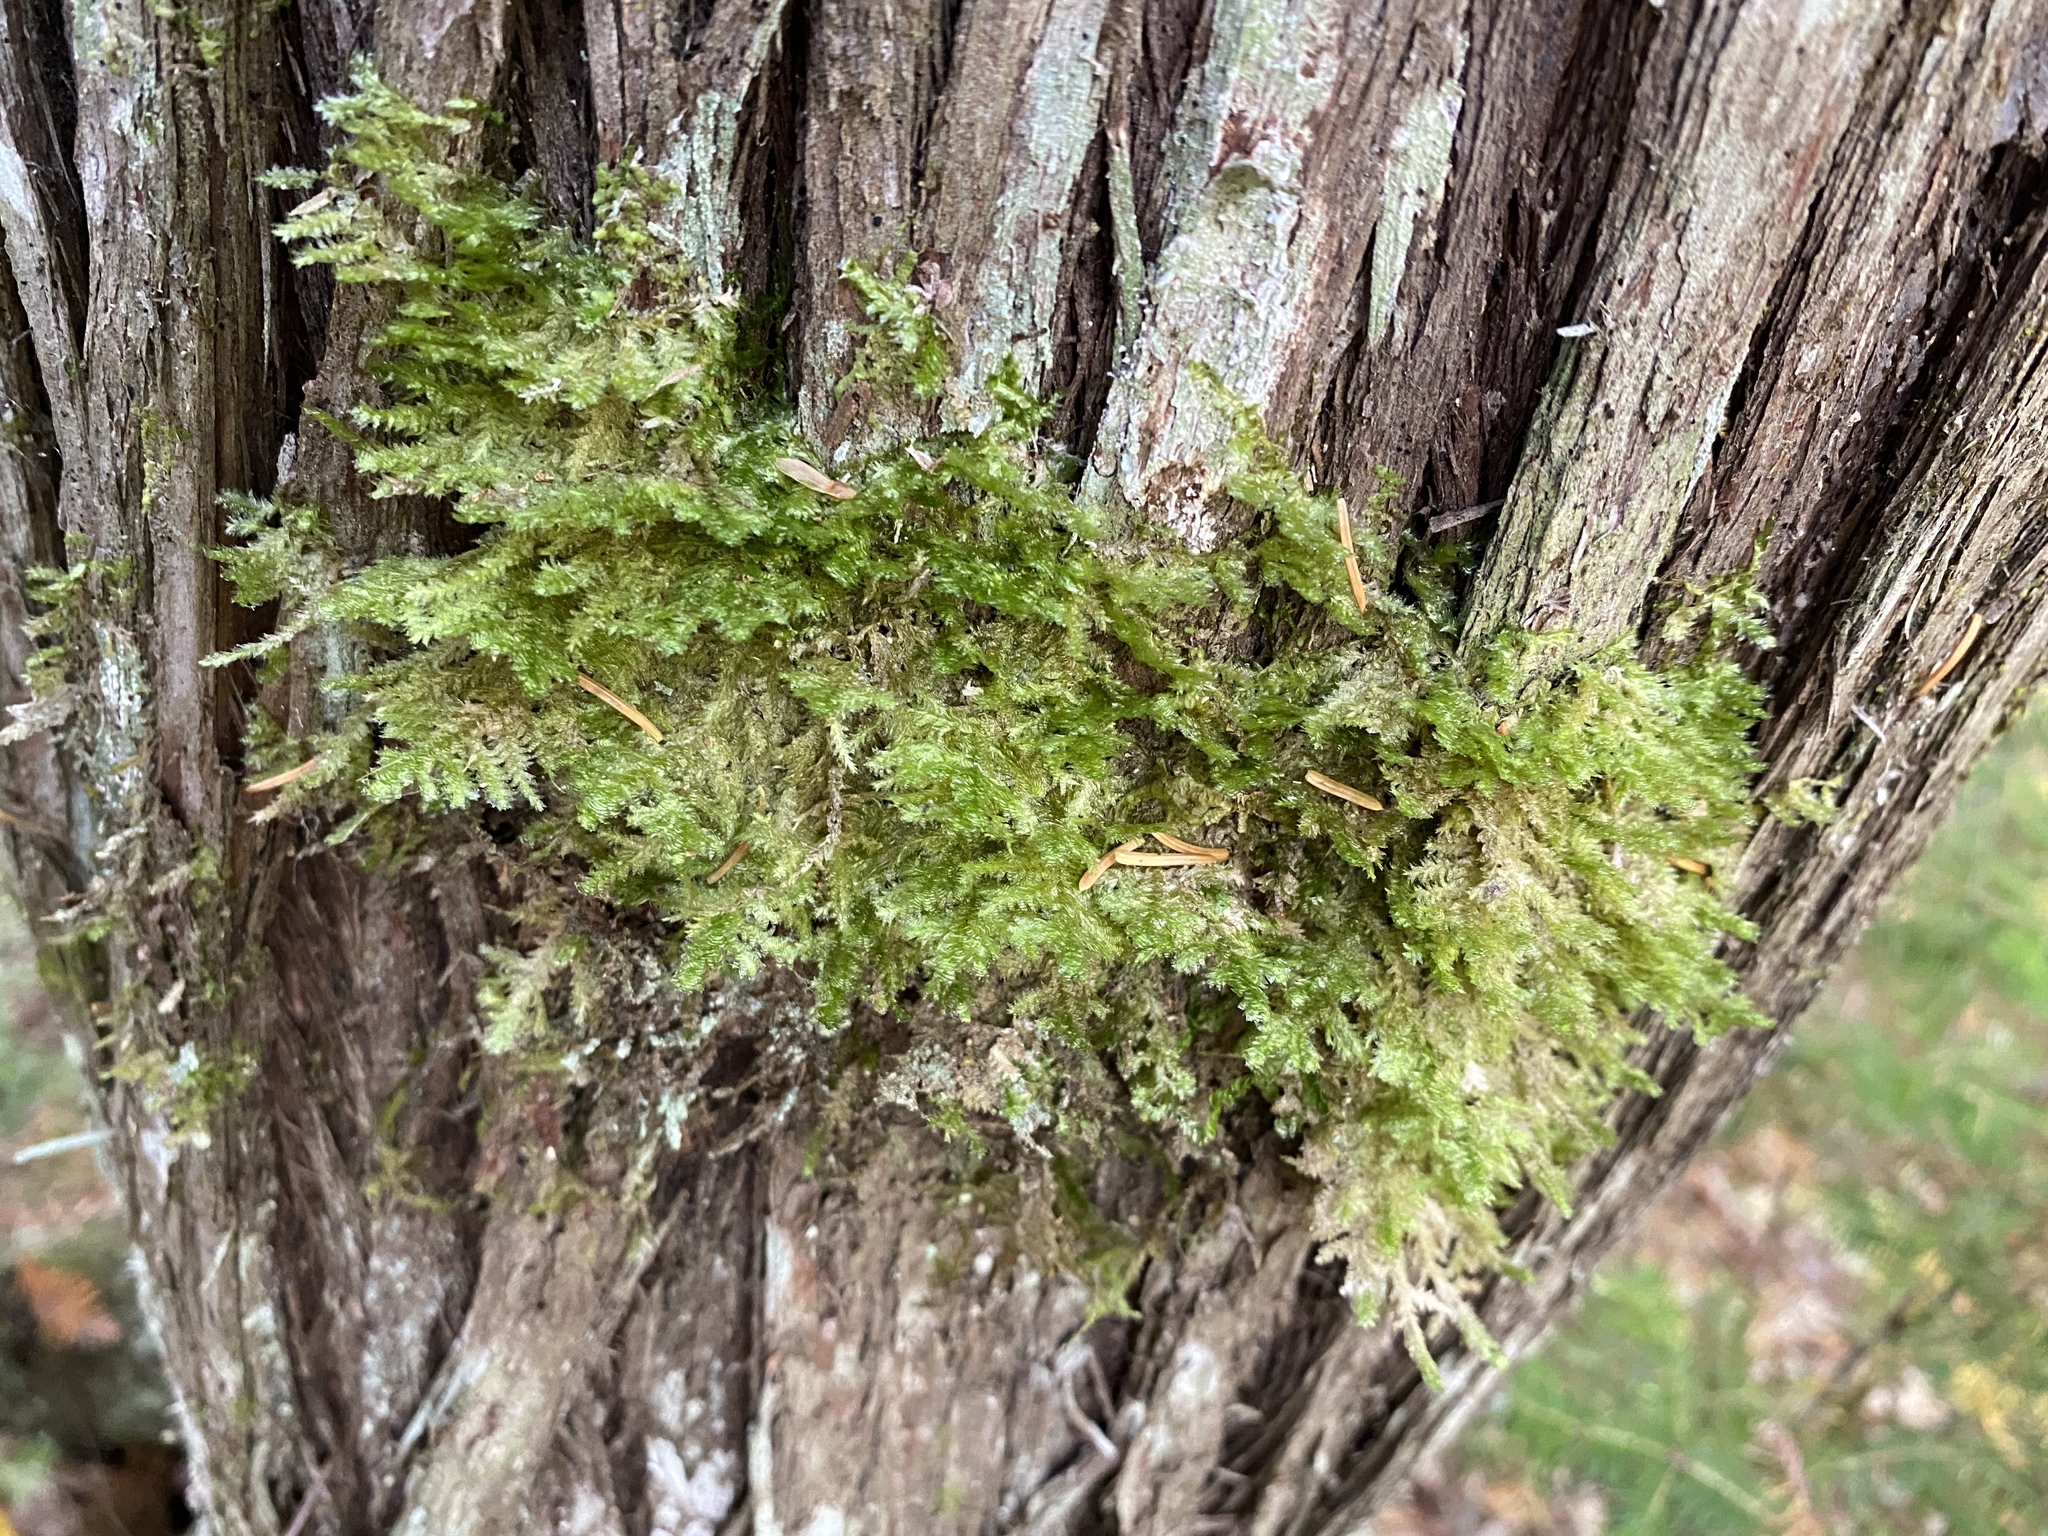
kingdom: Plantae
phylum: Bryophyta
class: Bryopsida
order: Hypnales
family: Neckeraceae
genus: Neckera
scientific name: Neckera pennata
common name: Feathery neckera
